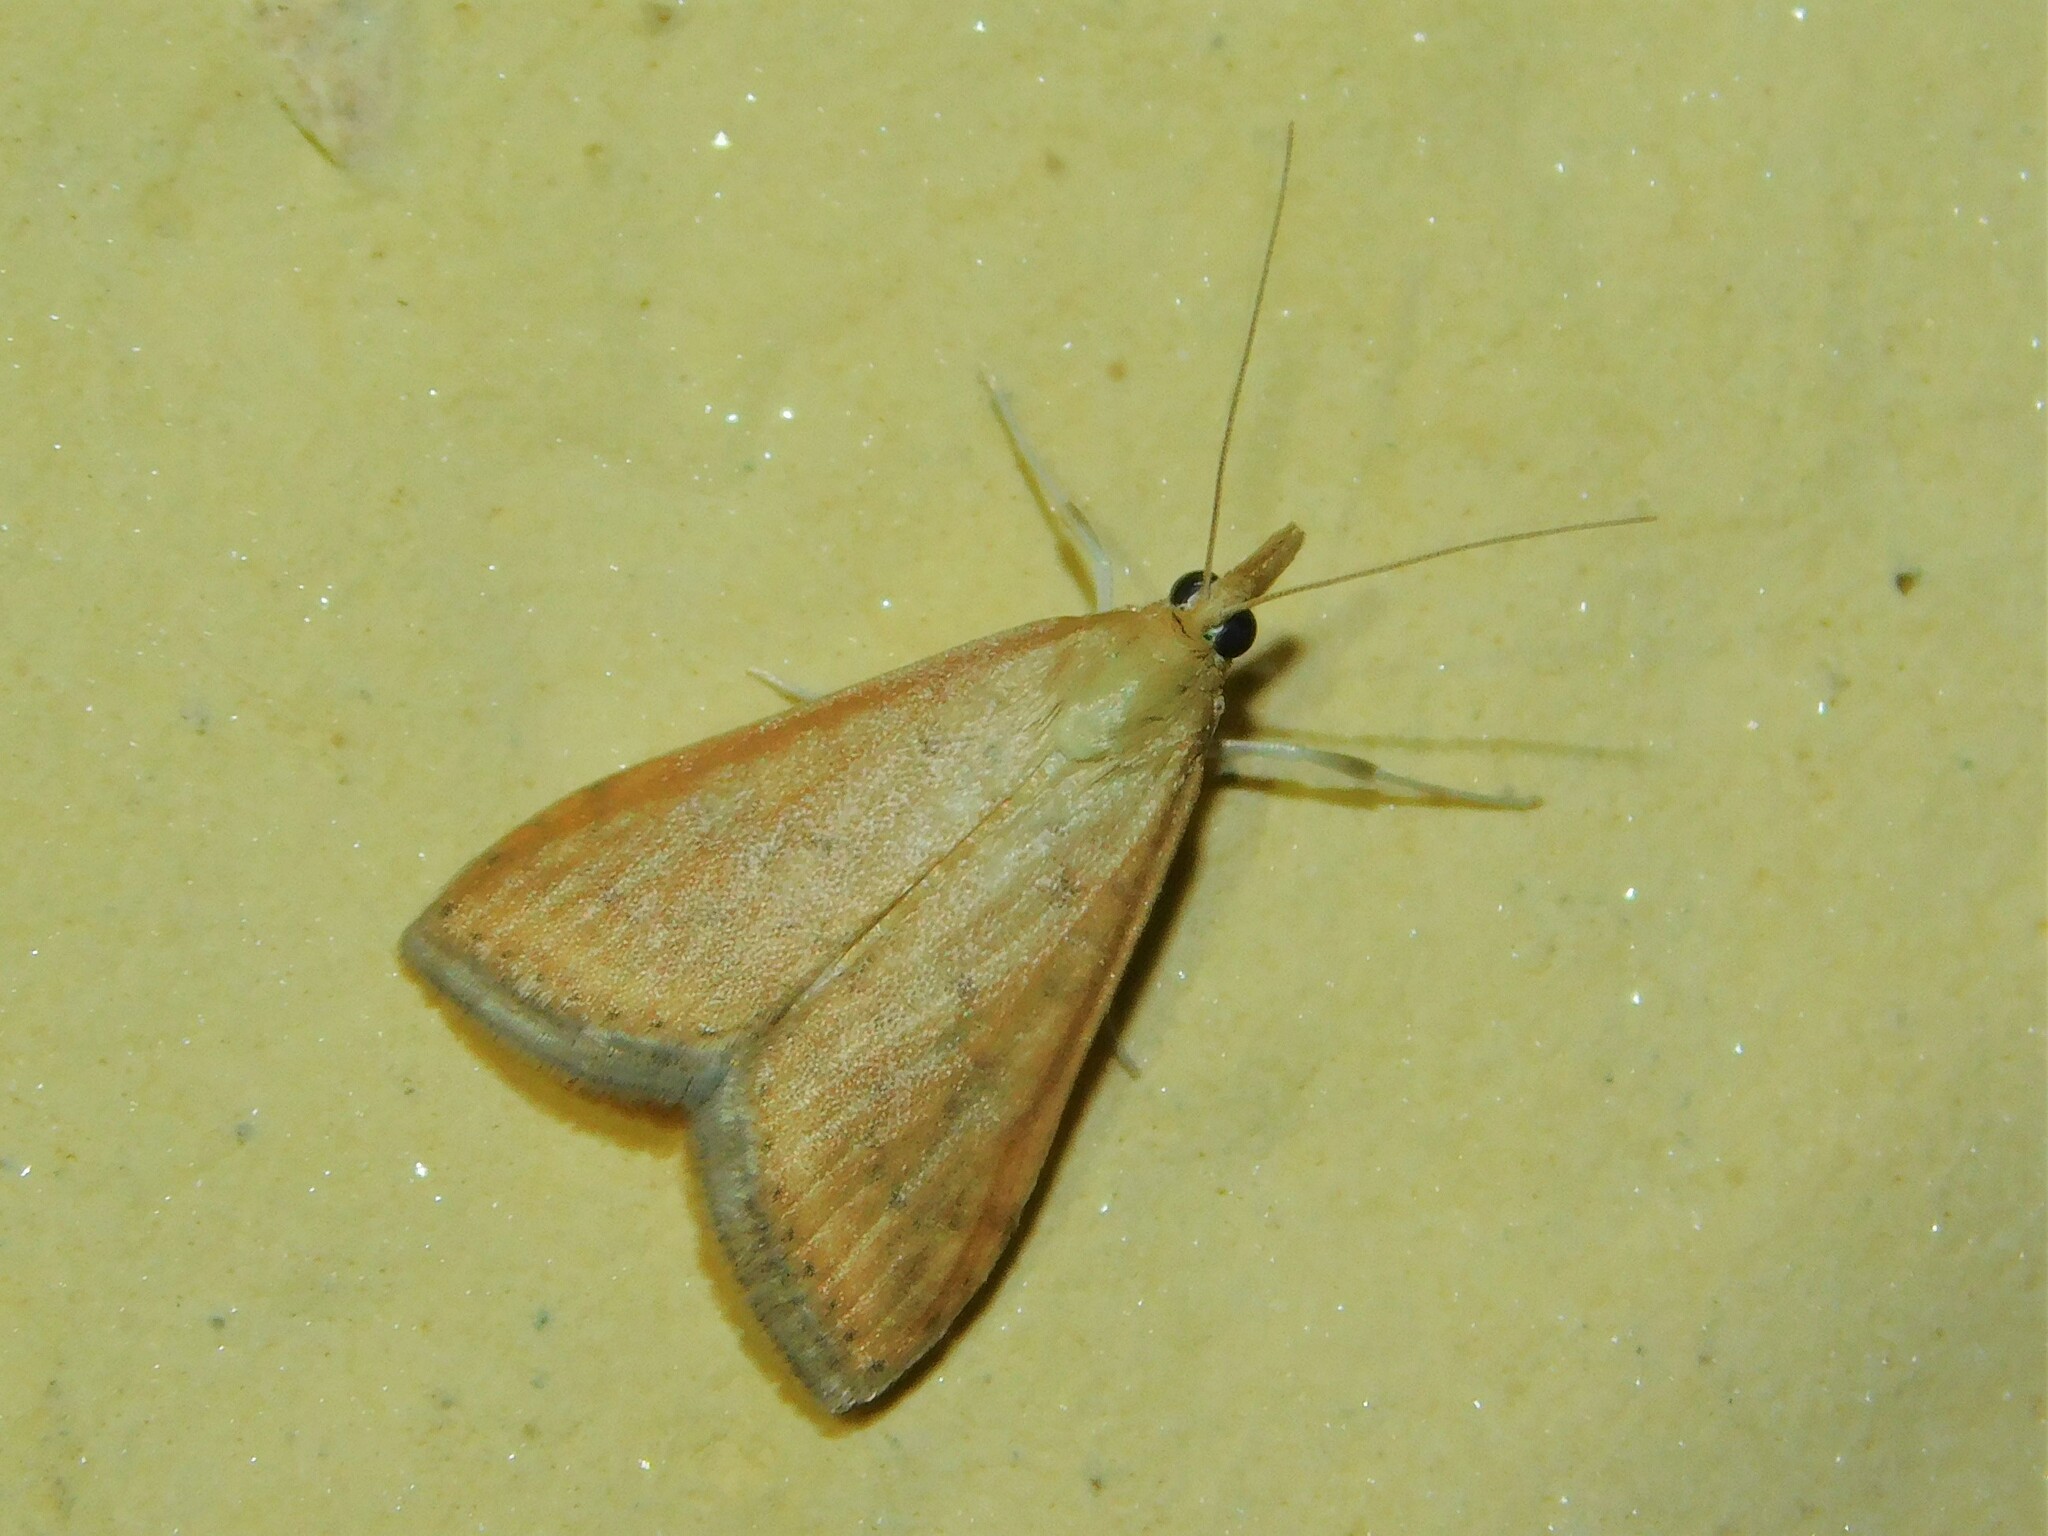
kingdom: Animalia
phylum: Arthropoda
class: Insecta
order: Lepidoptera
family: Crambidae
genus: Udea
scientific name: Udea ferrugalis
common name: Rusty dot
